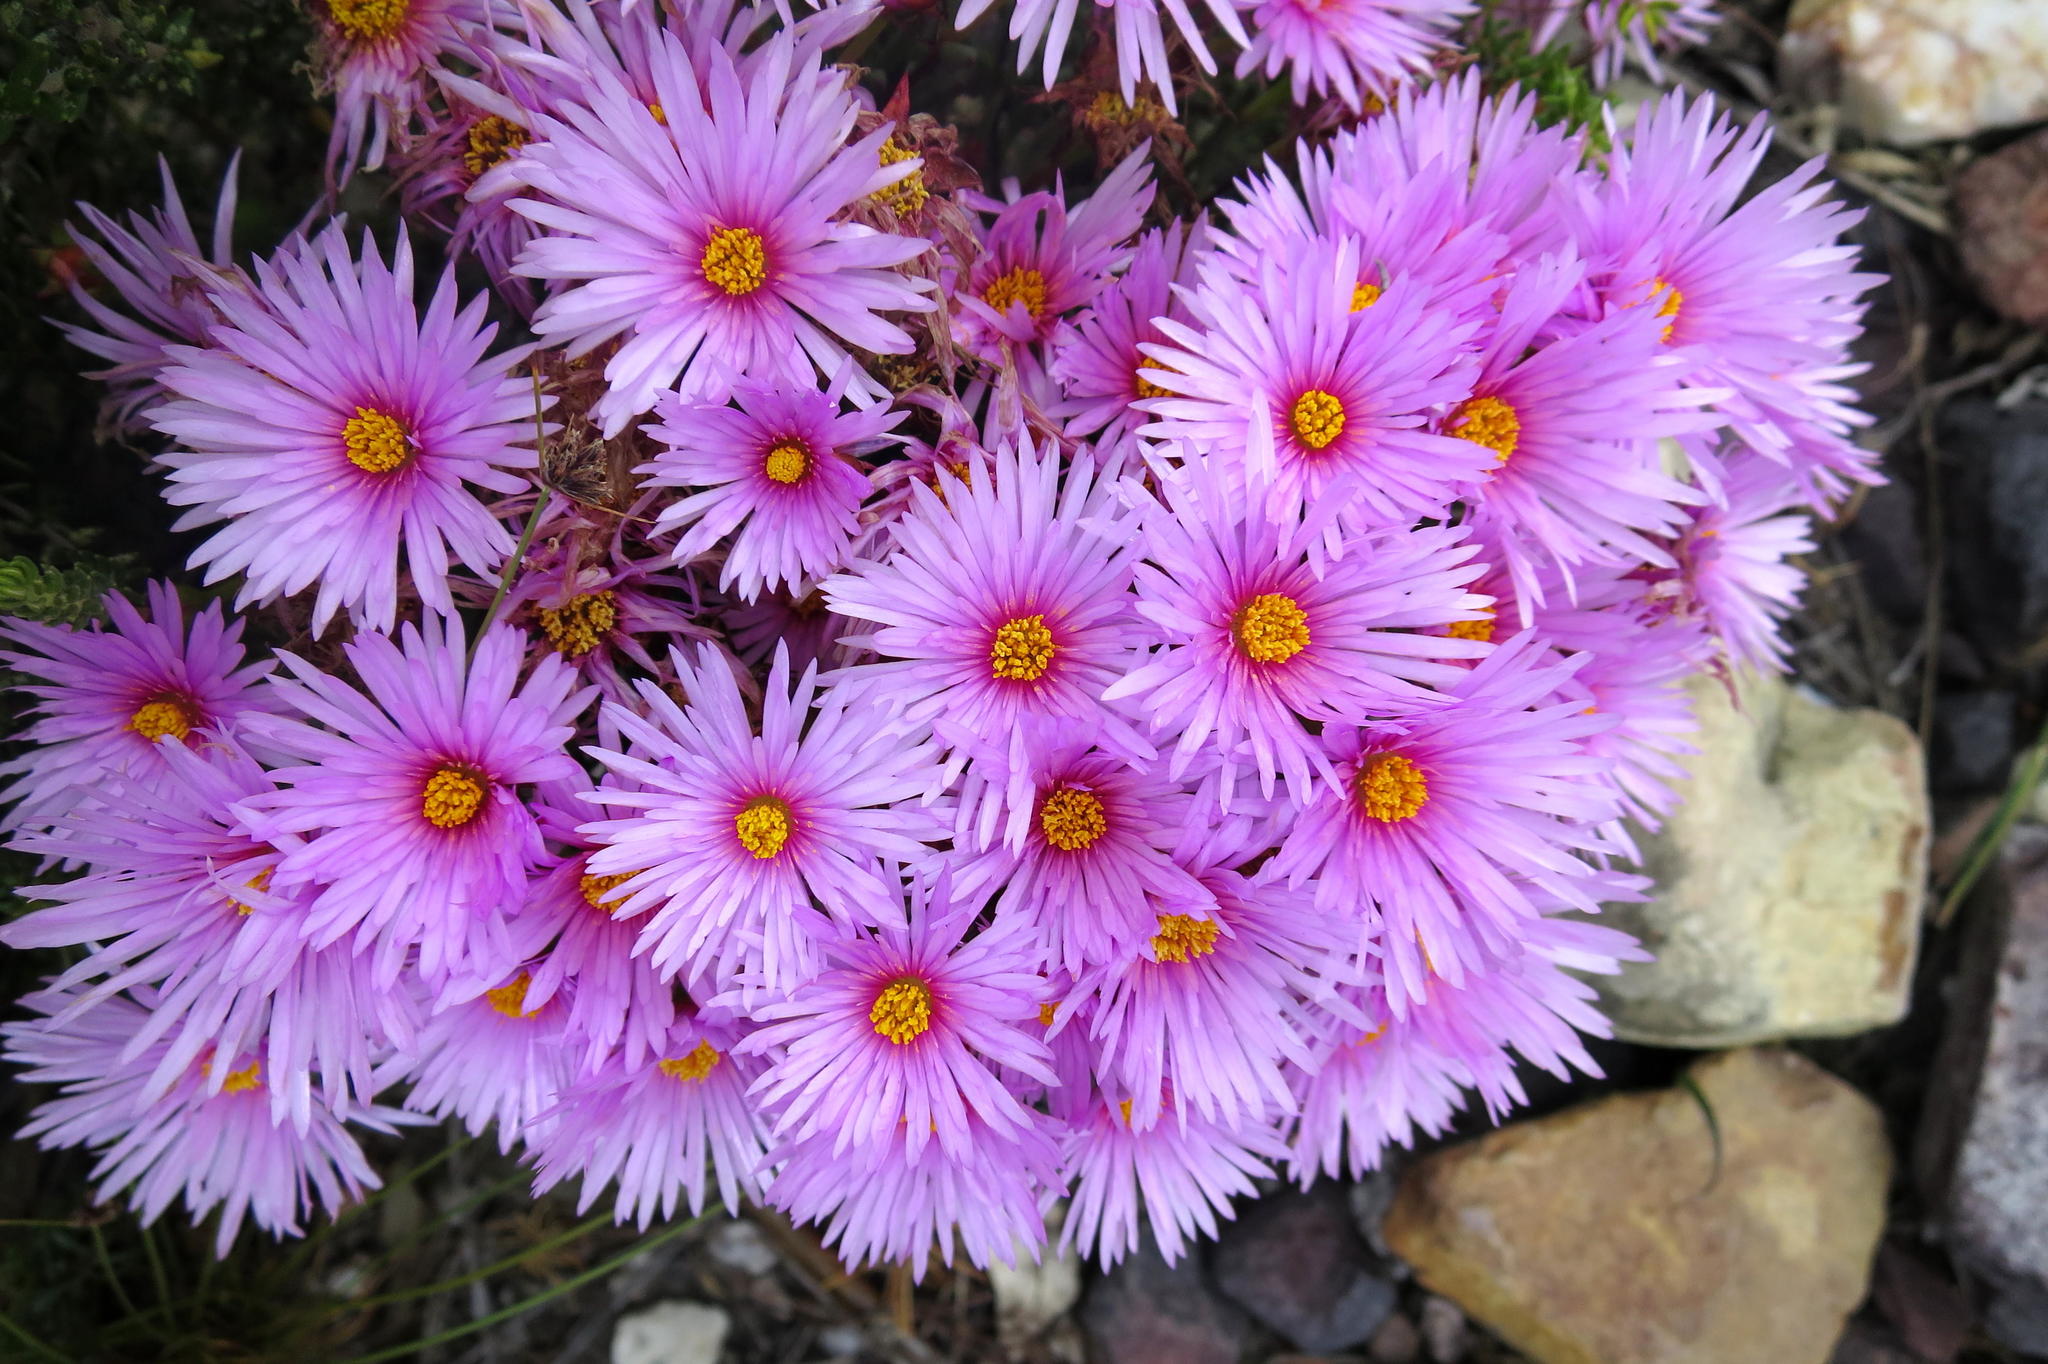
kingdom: Plantae
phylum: Tracheophyta
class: Magnoliopsida
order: Caryophyllales
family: Aizoaceae
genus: Lampranthus
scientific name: Lampranthus ceriseus
